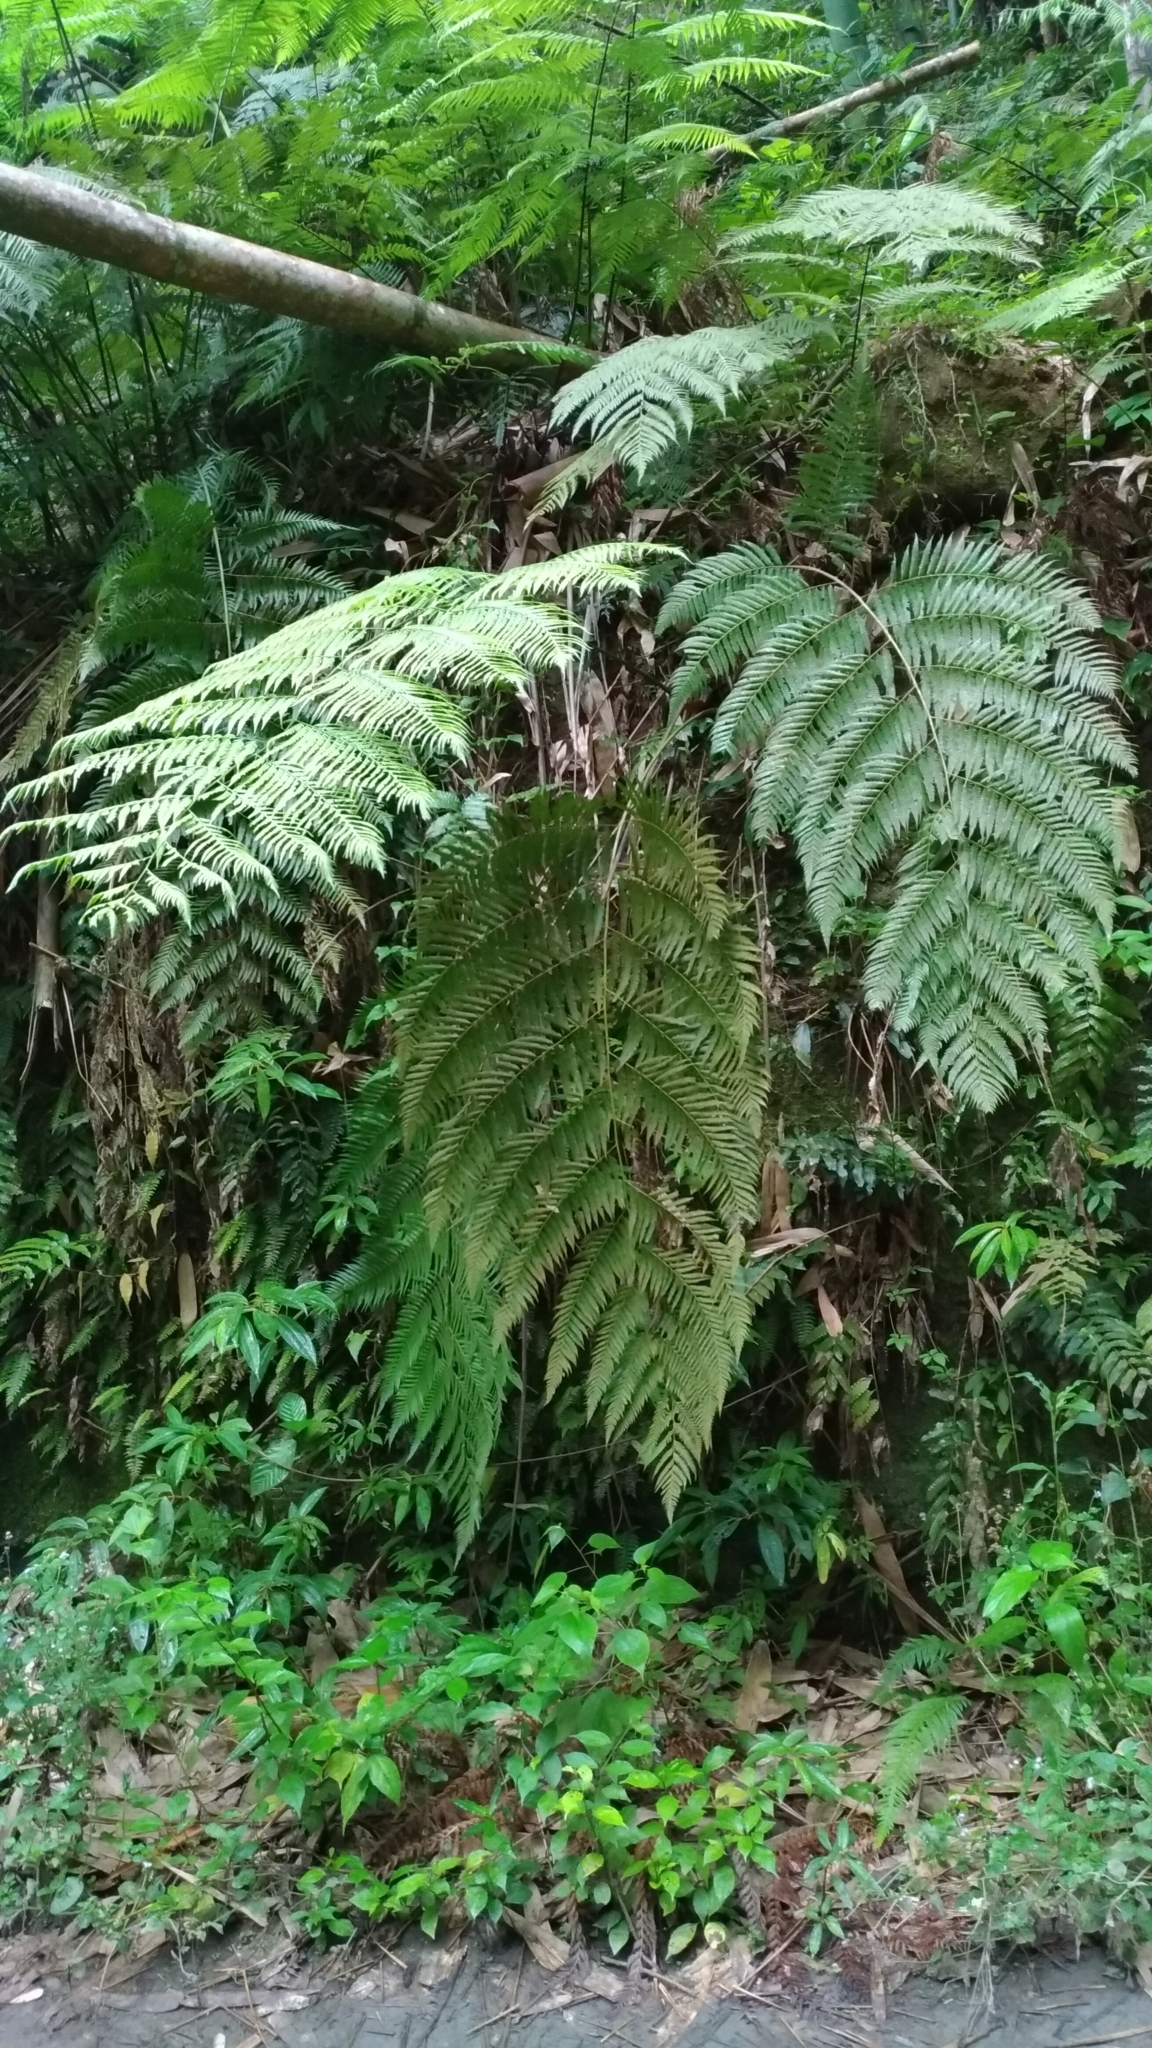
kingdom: Plantae
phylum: Tracheophyta
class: Polypodiopsida
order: Cyatheales
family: Cibotiaceae
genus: Cibotium
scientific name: Cibotium barometz
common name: Scythian-lamb
